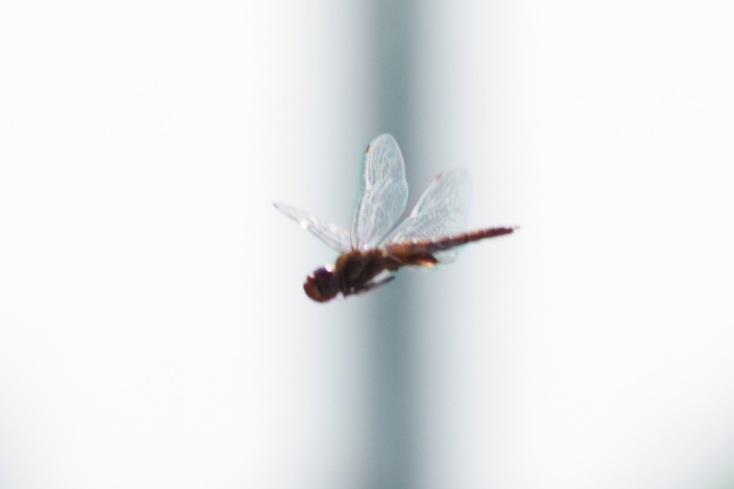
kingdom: Animalia
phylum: Arthropoda
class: Insecta
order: Odonata
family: Libellulidae
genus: Pantala
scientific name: Pantala hymenaea
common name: Spot-winged glider
